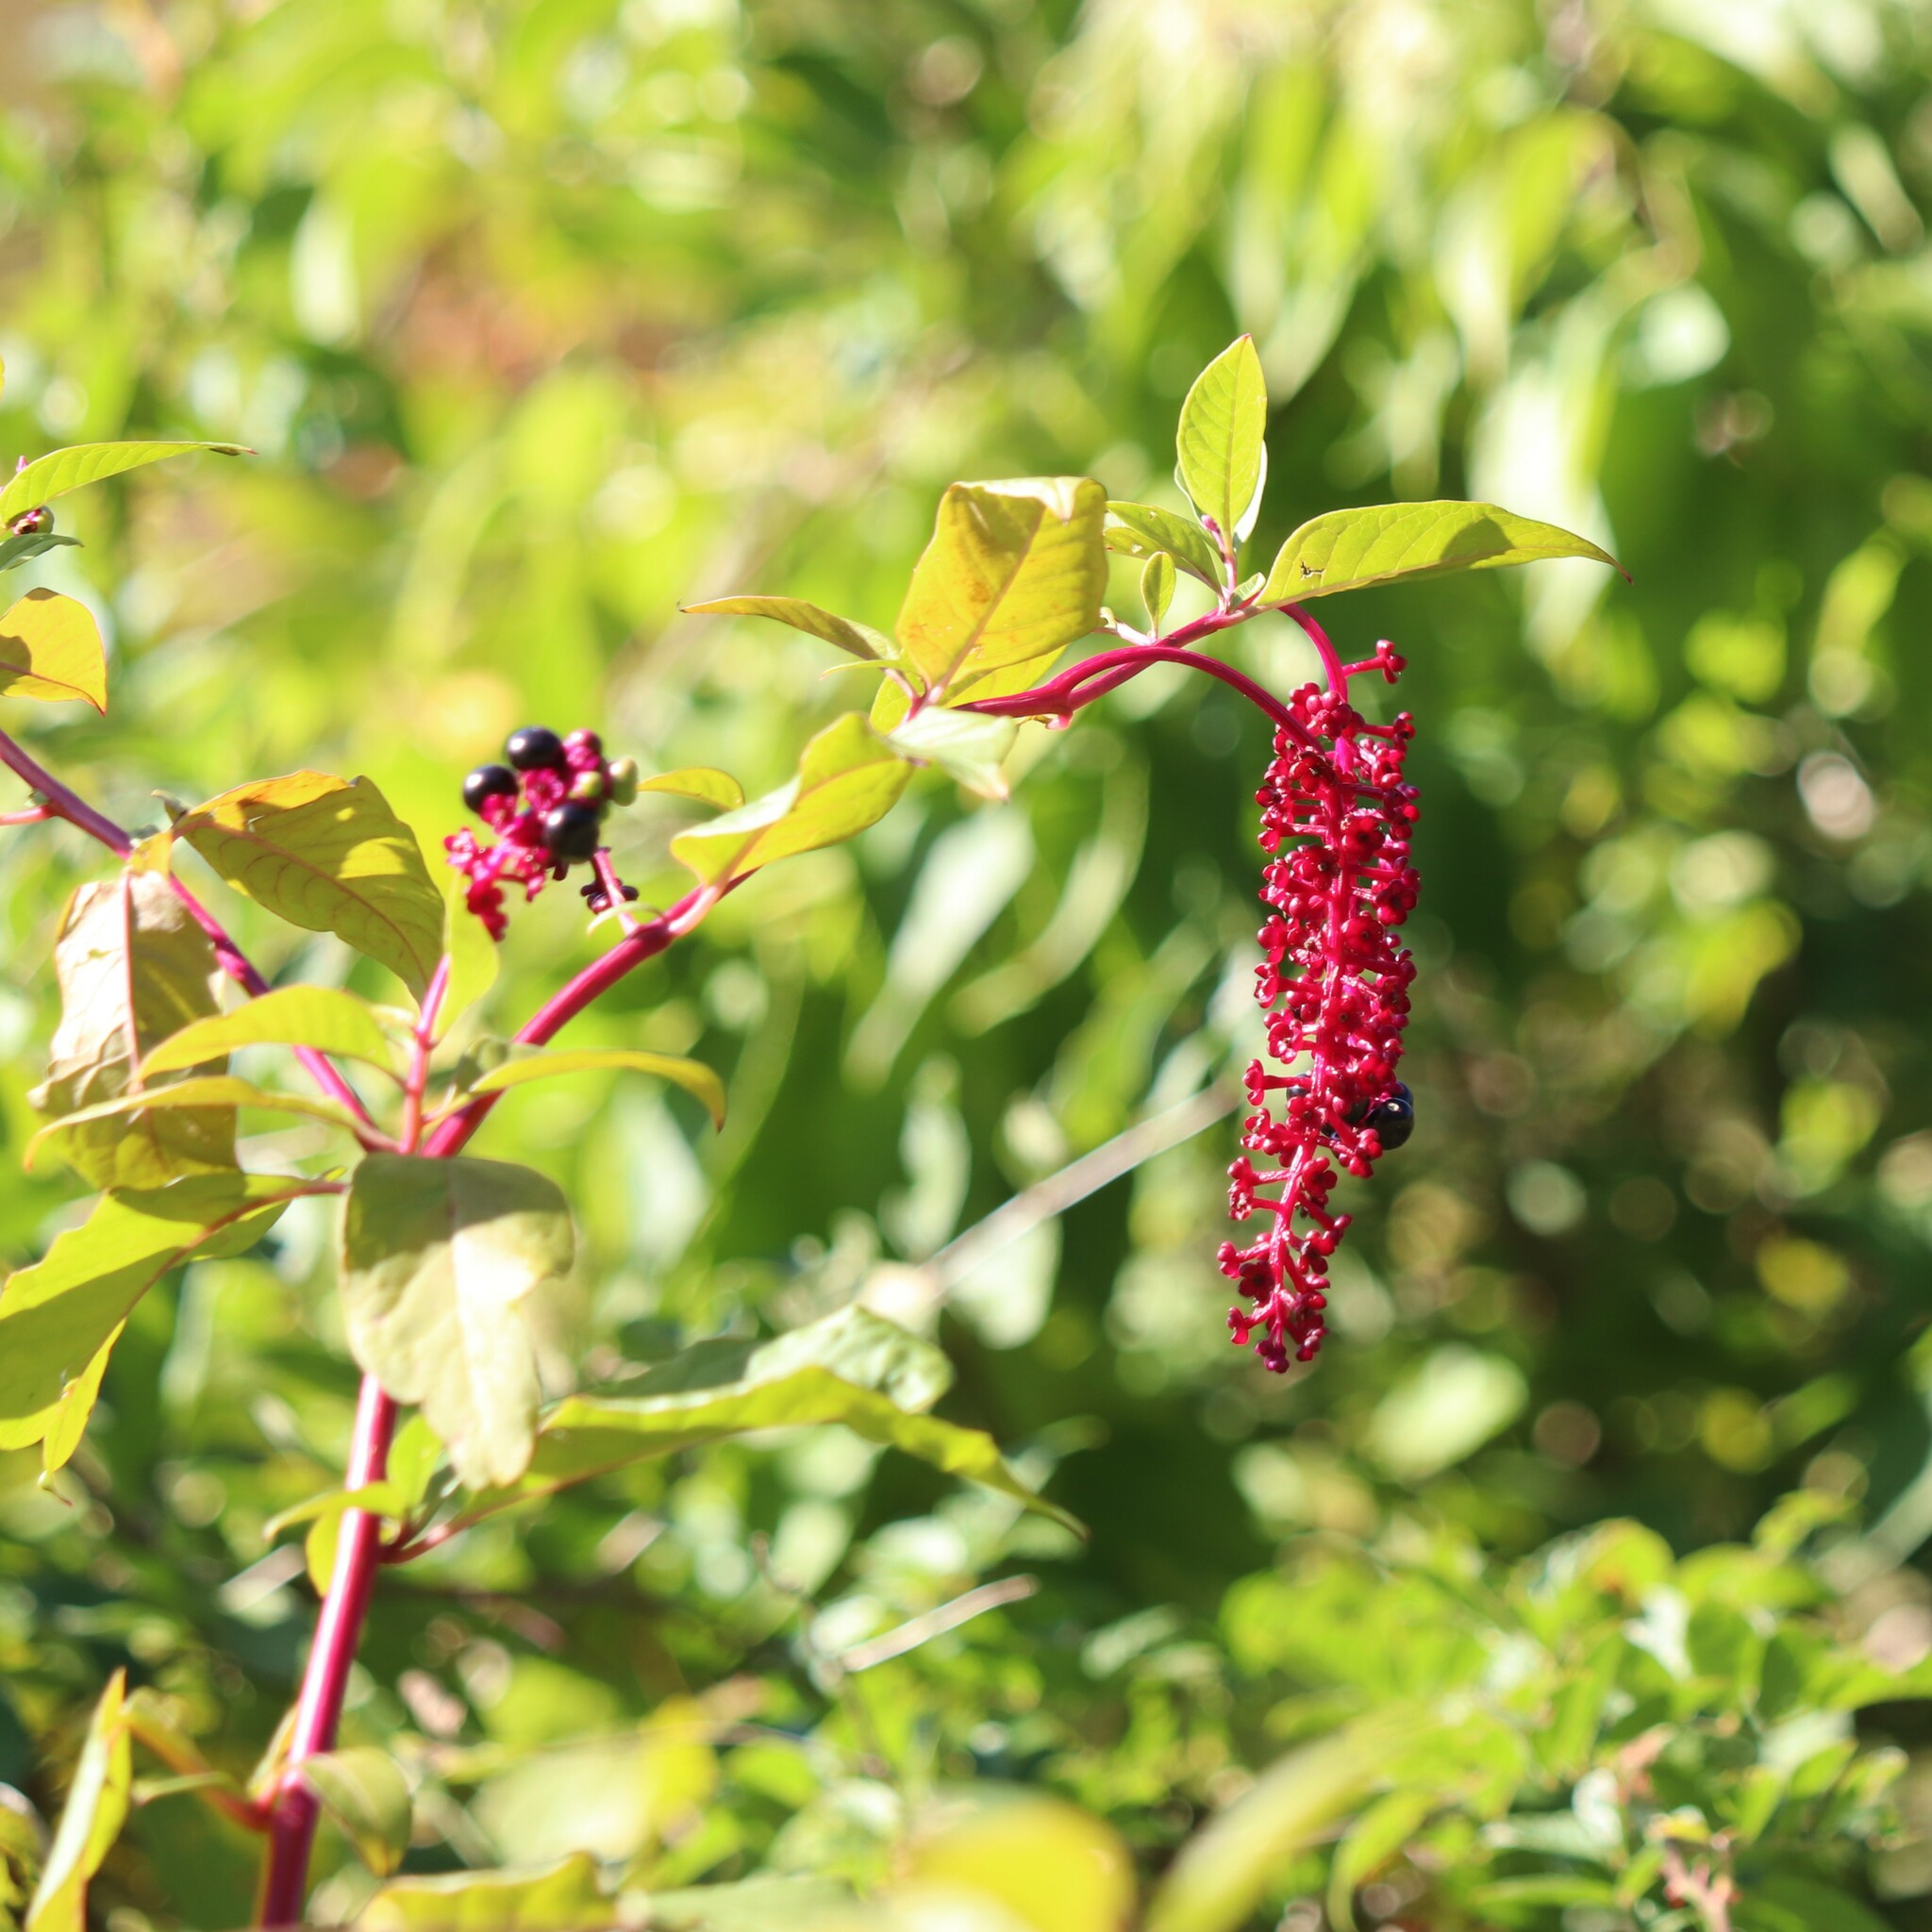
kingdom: Plantae
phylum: Tracheophyta
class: Magnoliopsida
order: Caryophyllales
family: Phytolaccaceae
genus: Phytolacca
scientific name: Phytolacca americana
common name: American pokeweed
